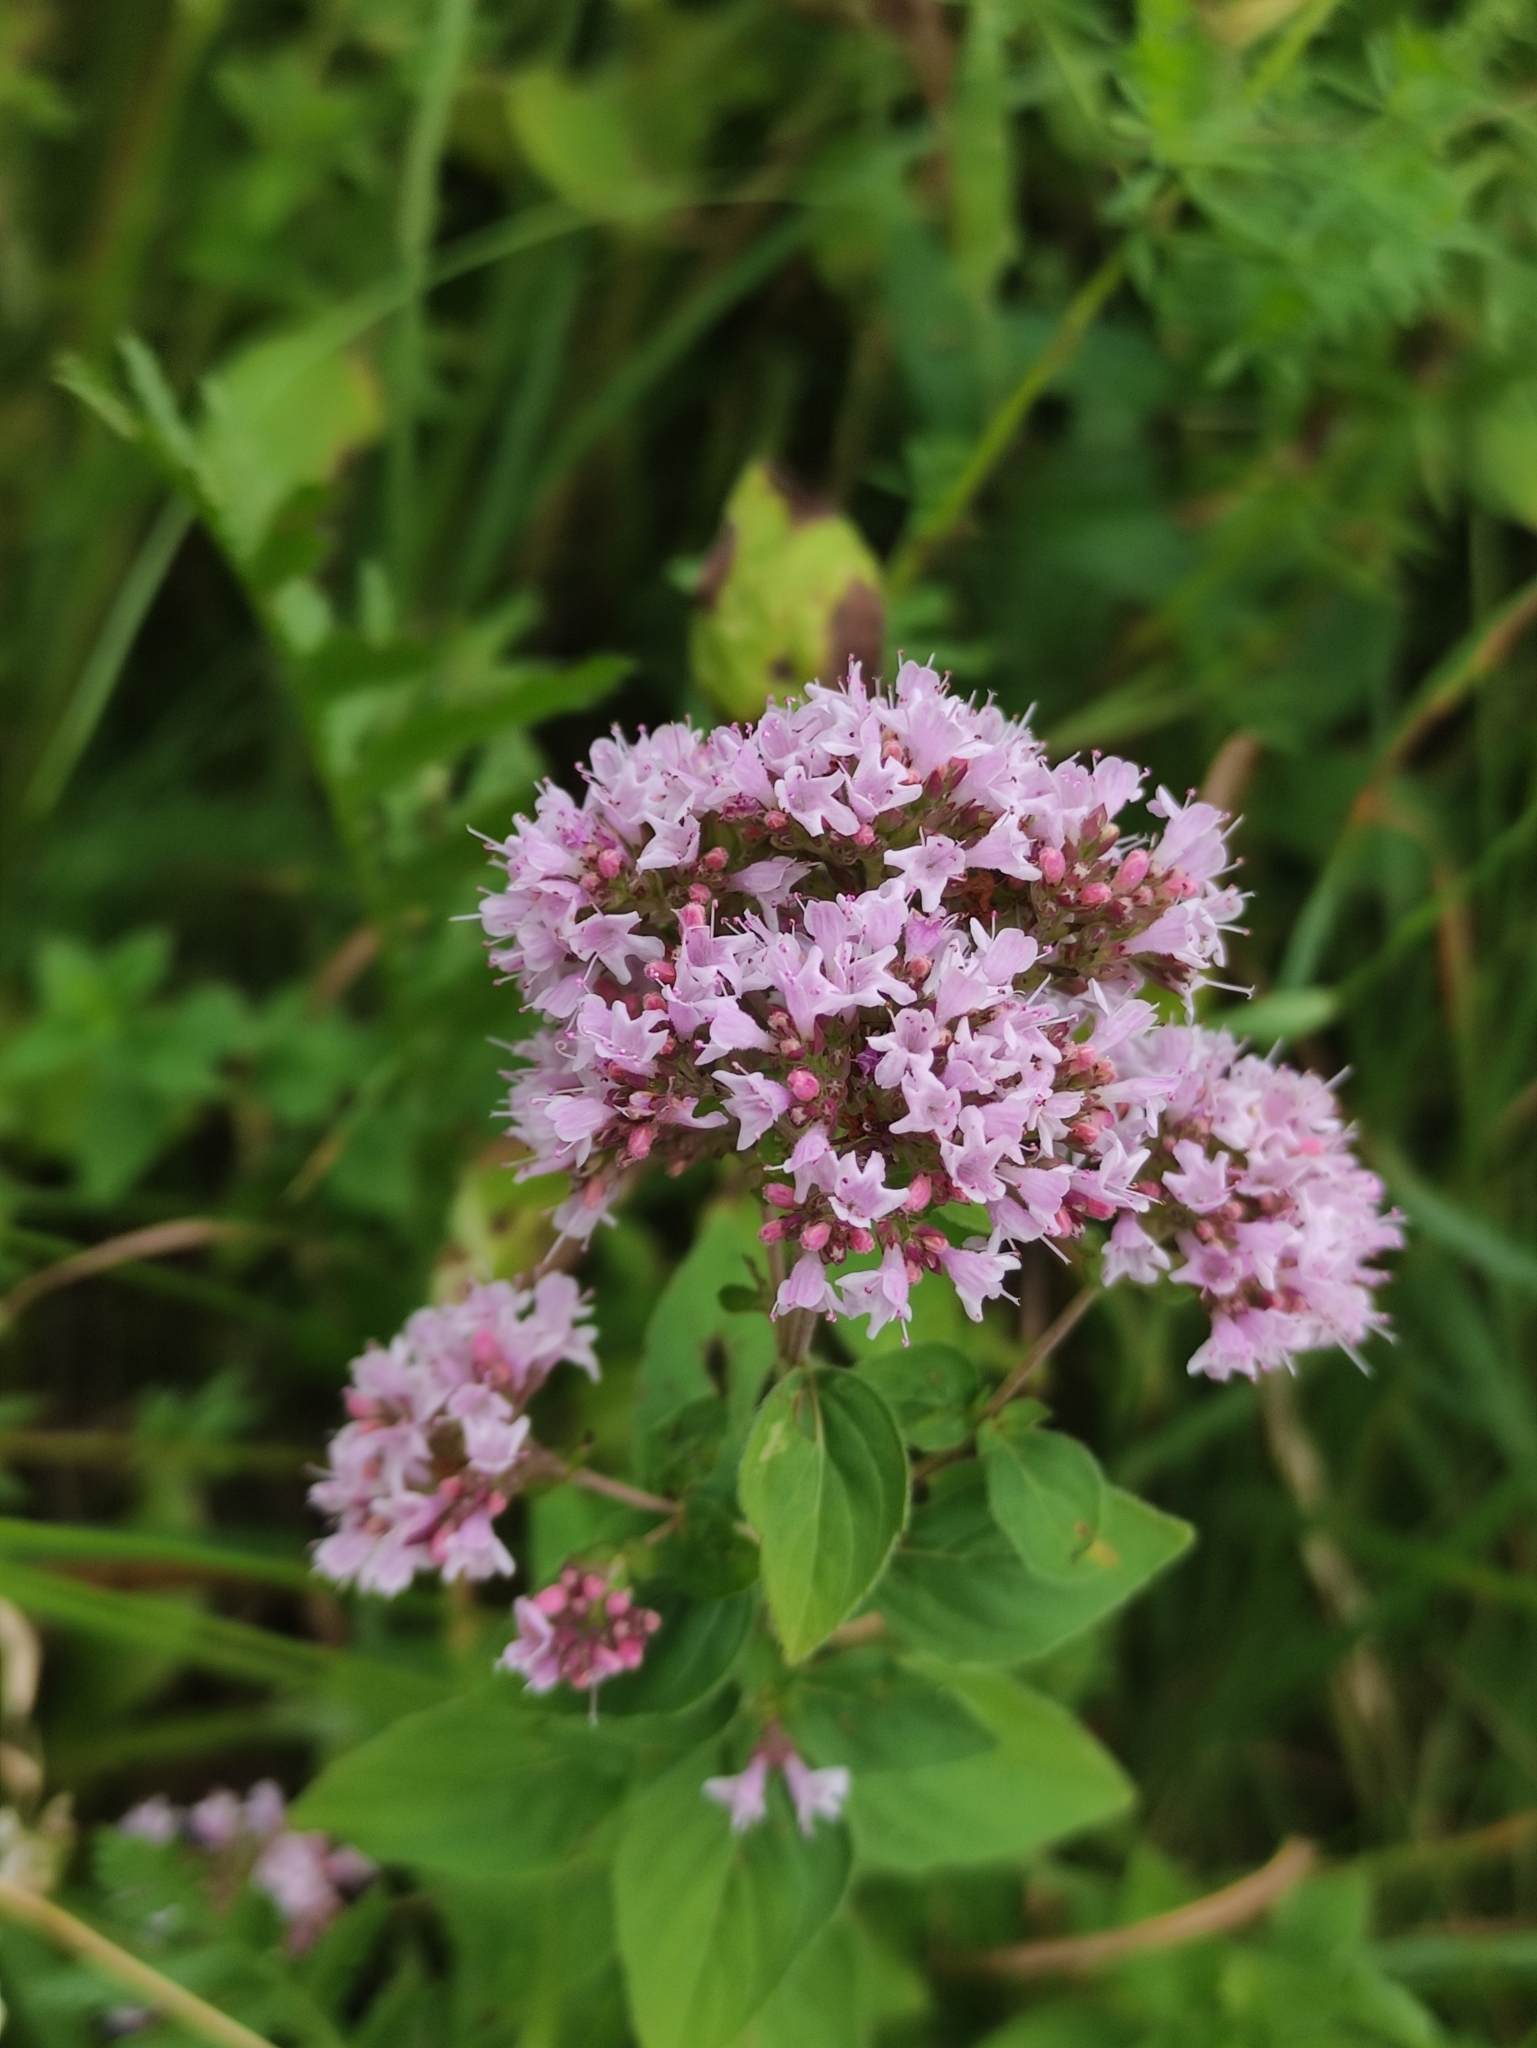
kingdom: Plantae
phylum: Tracheophyta
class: Magnoliopsida
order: Lamiales
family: Lamiaceae
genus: Origanum
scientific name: Origanum vulgare
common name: Wild marjoram
